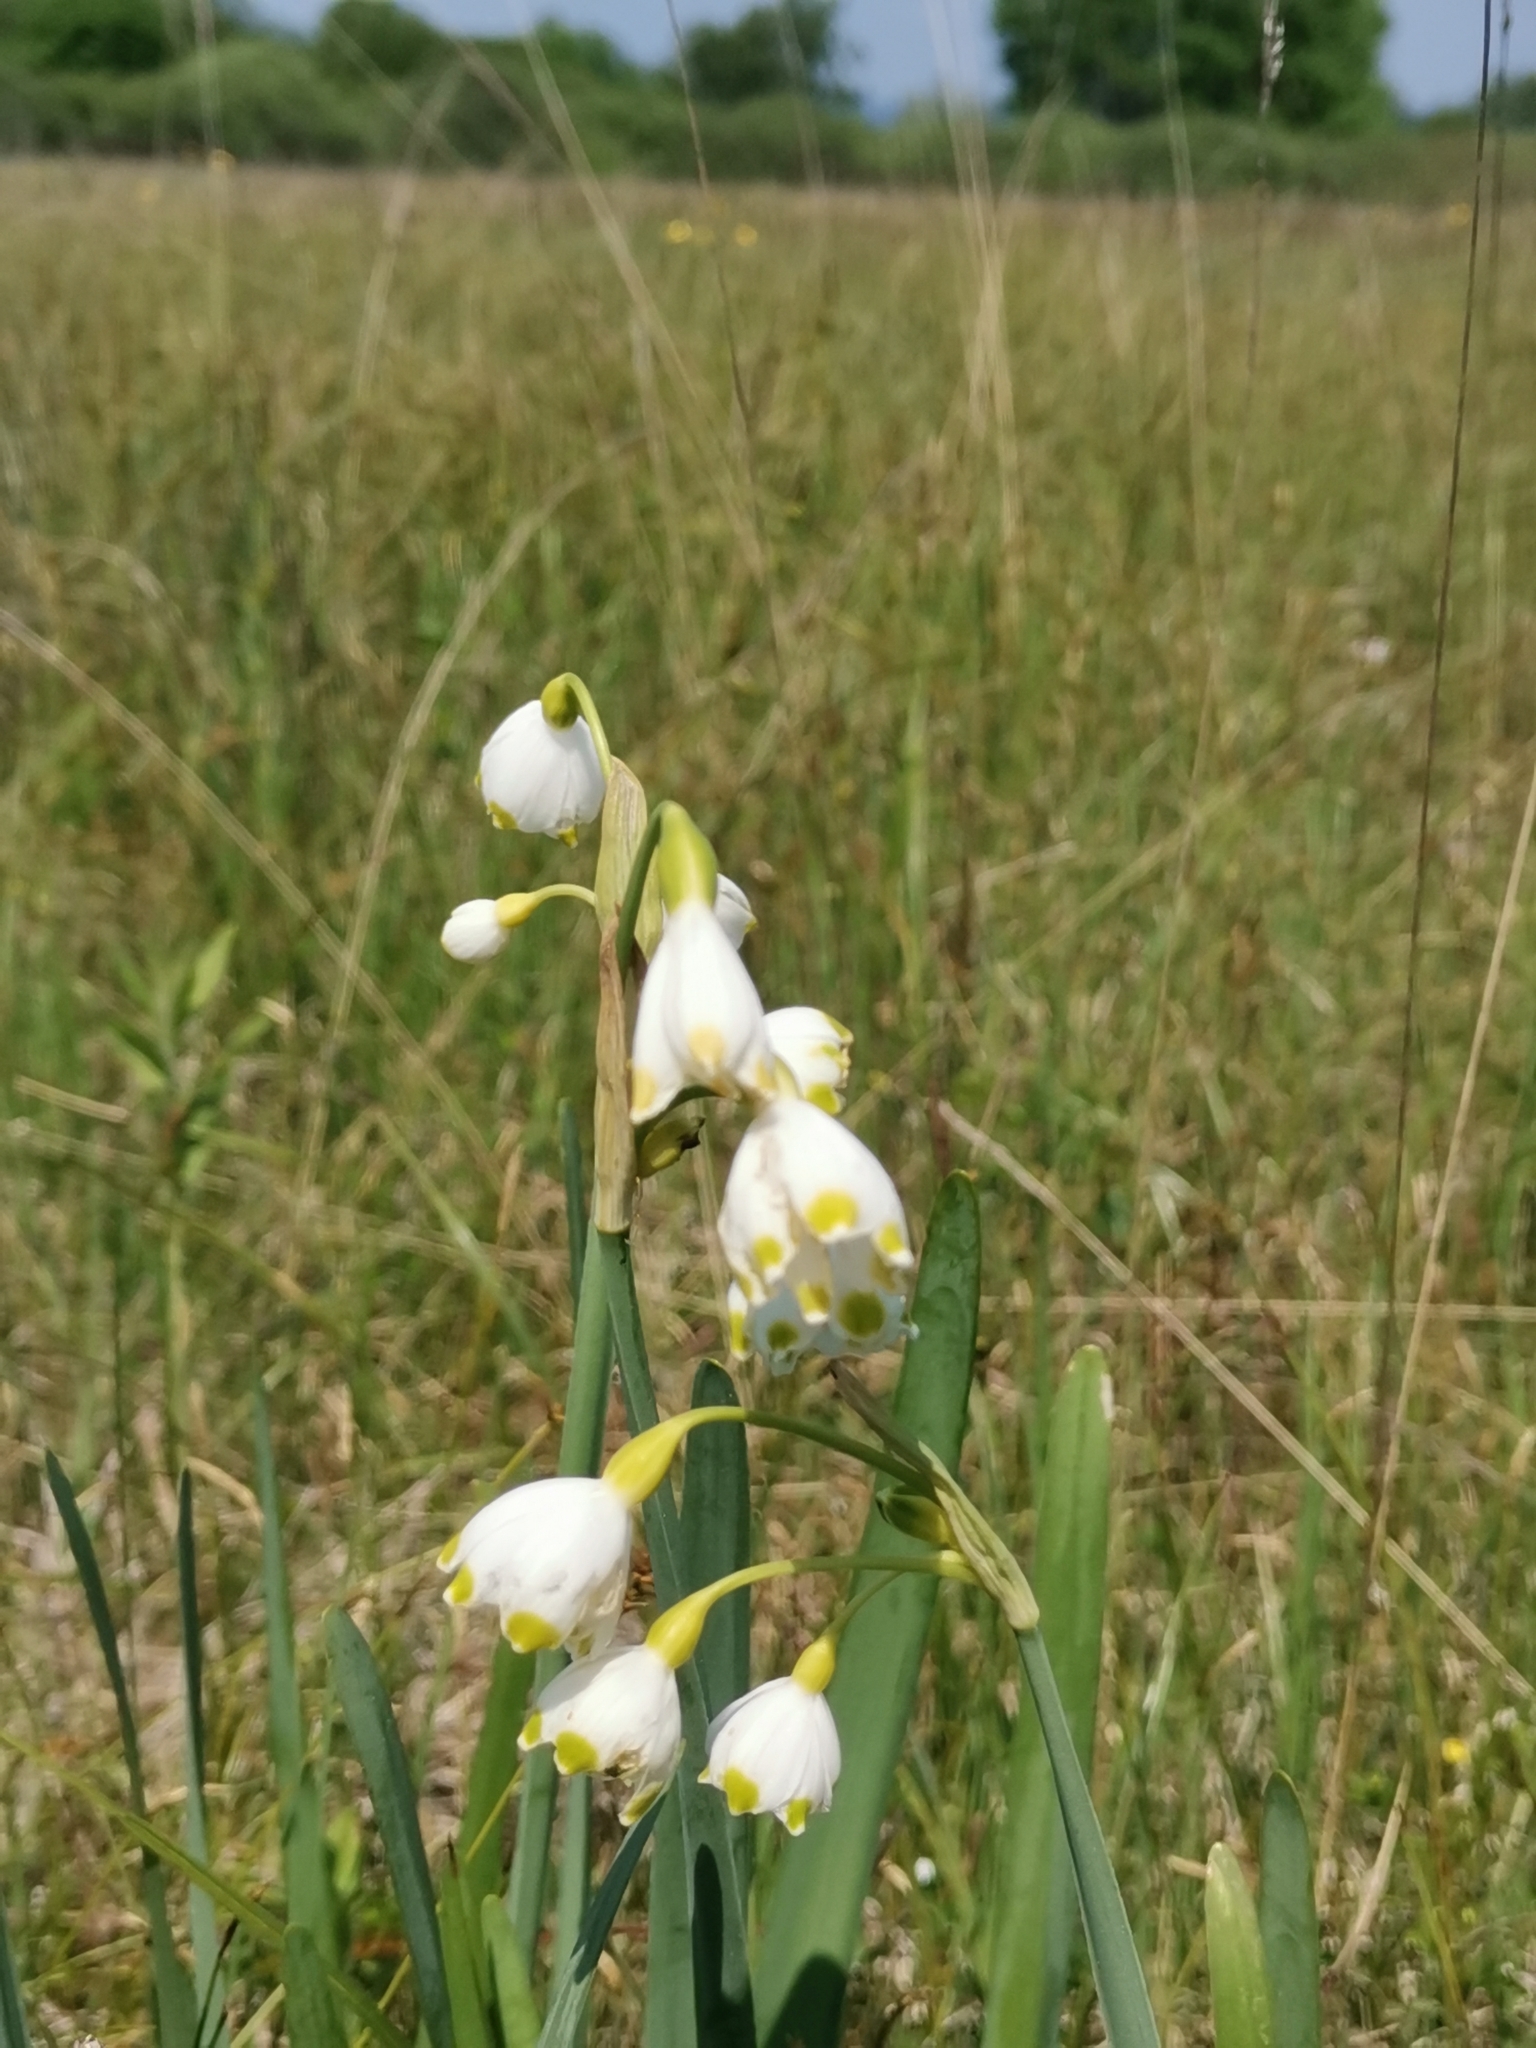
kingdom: Plantae
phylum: Tracheophyta
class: Liliopsida
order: Asparagales
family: Amaryllidaceae
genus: Leucojum
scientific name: Leucojum aestivum
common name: Summer snowflake
